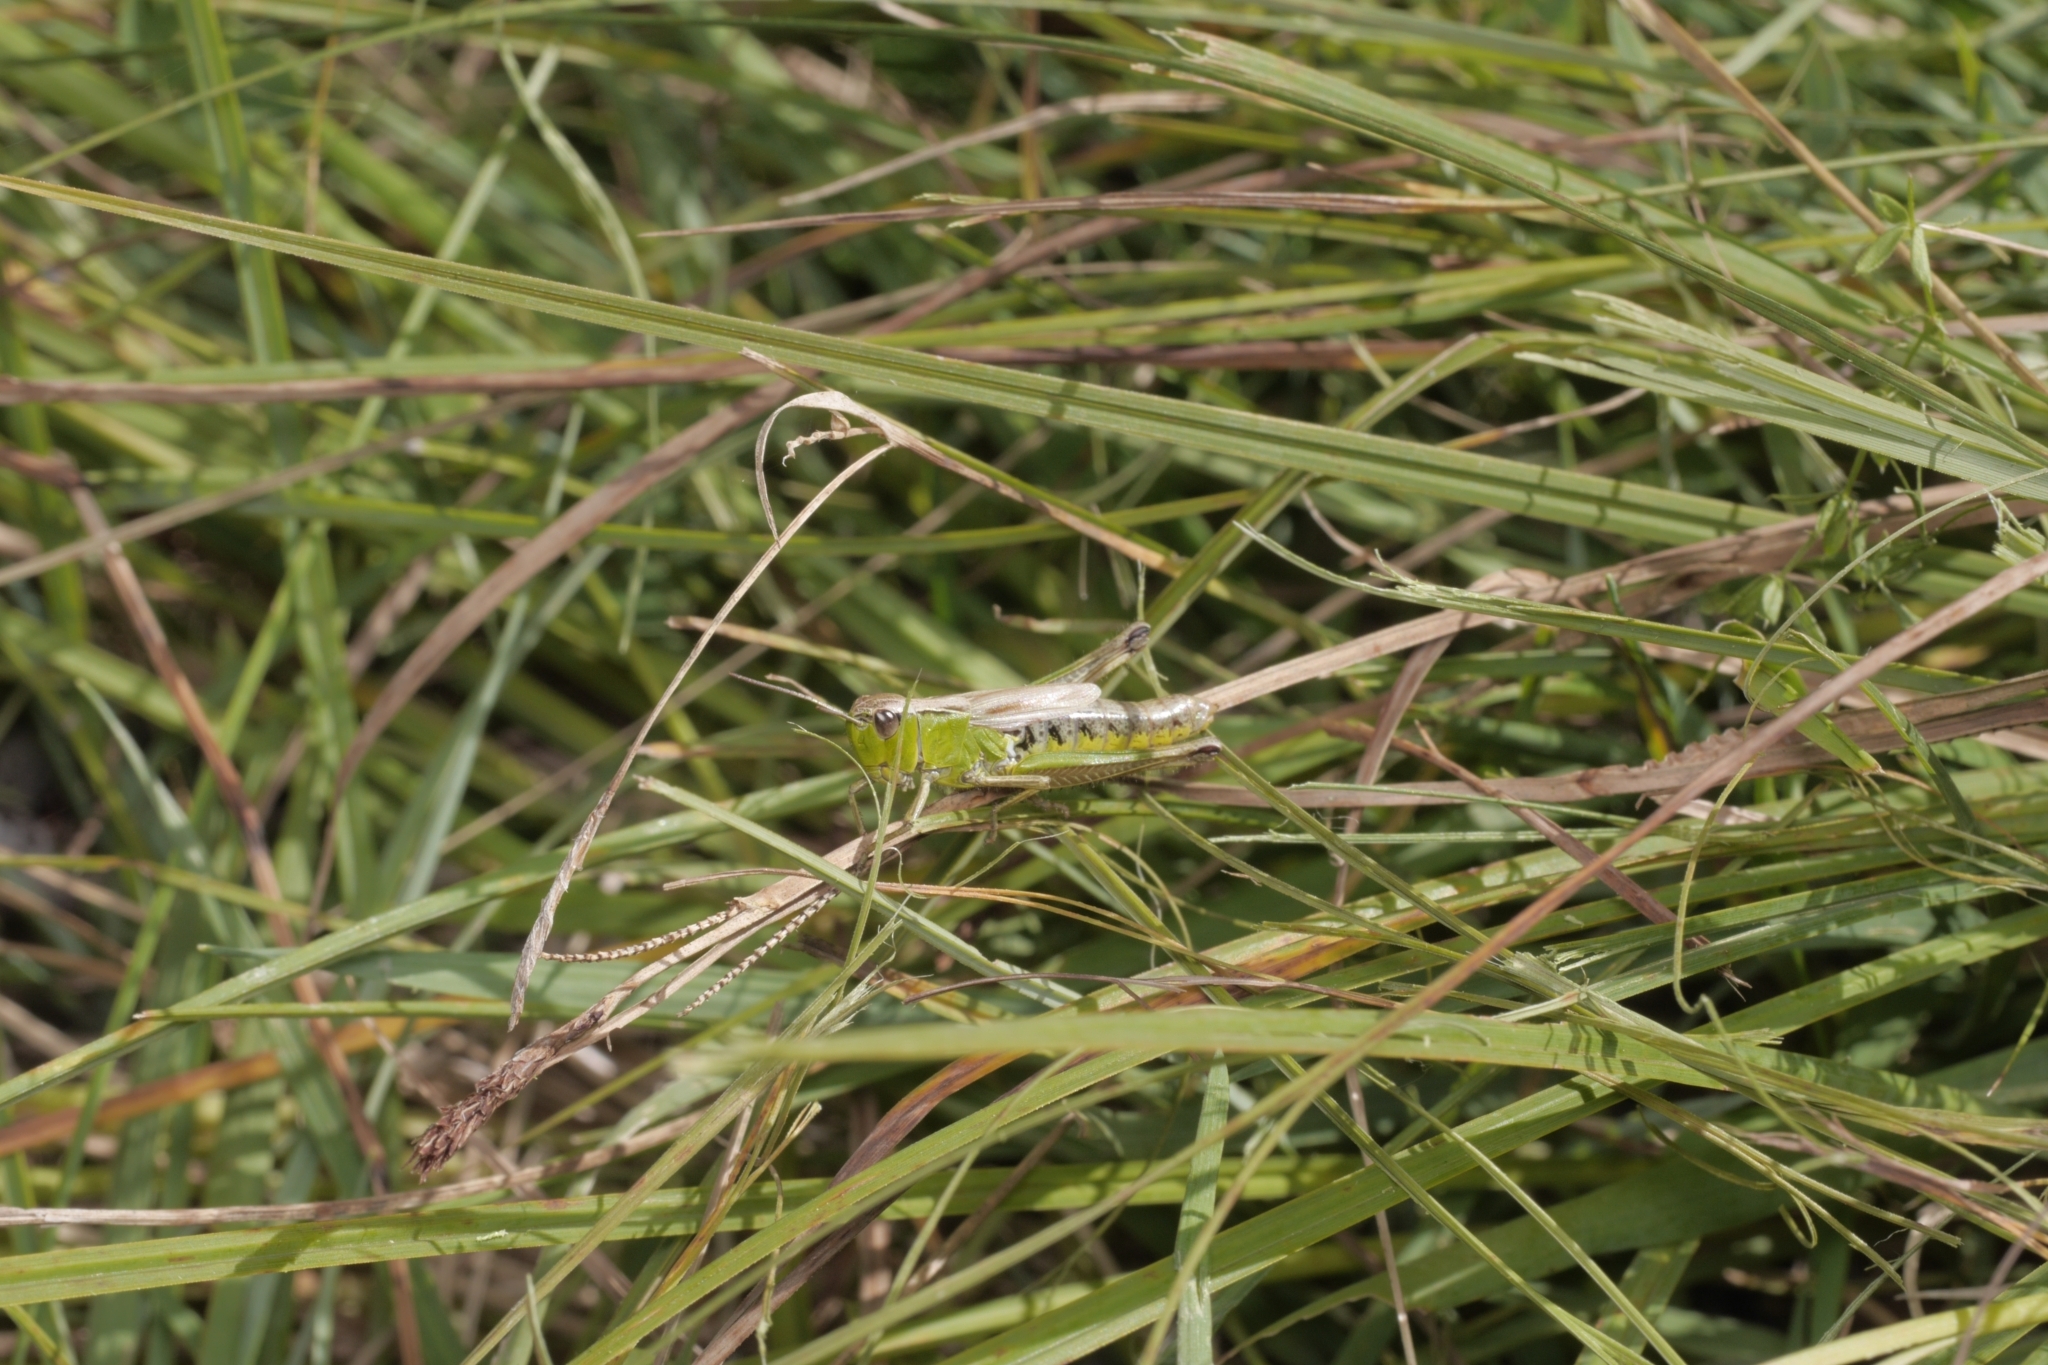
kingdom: Animalia
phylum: Arthropoda
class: Insecta
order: Orthoptera
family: Acrididae
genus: Pseudochorthippus
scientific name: Pseudochorthippus montanus
